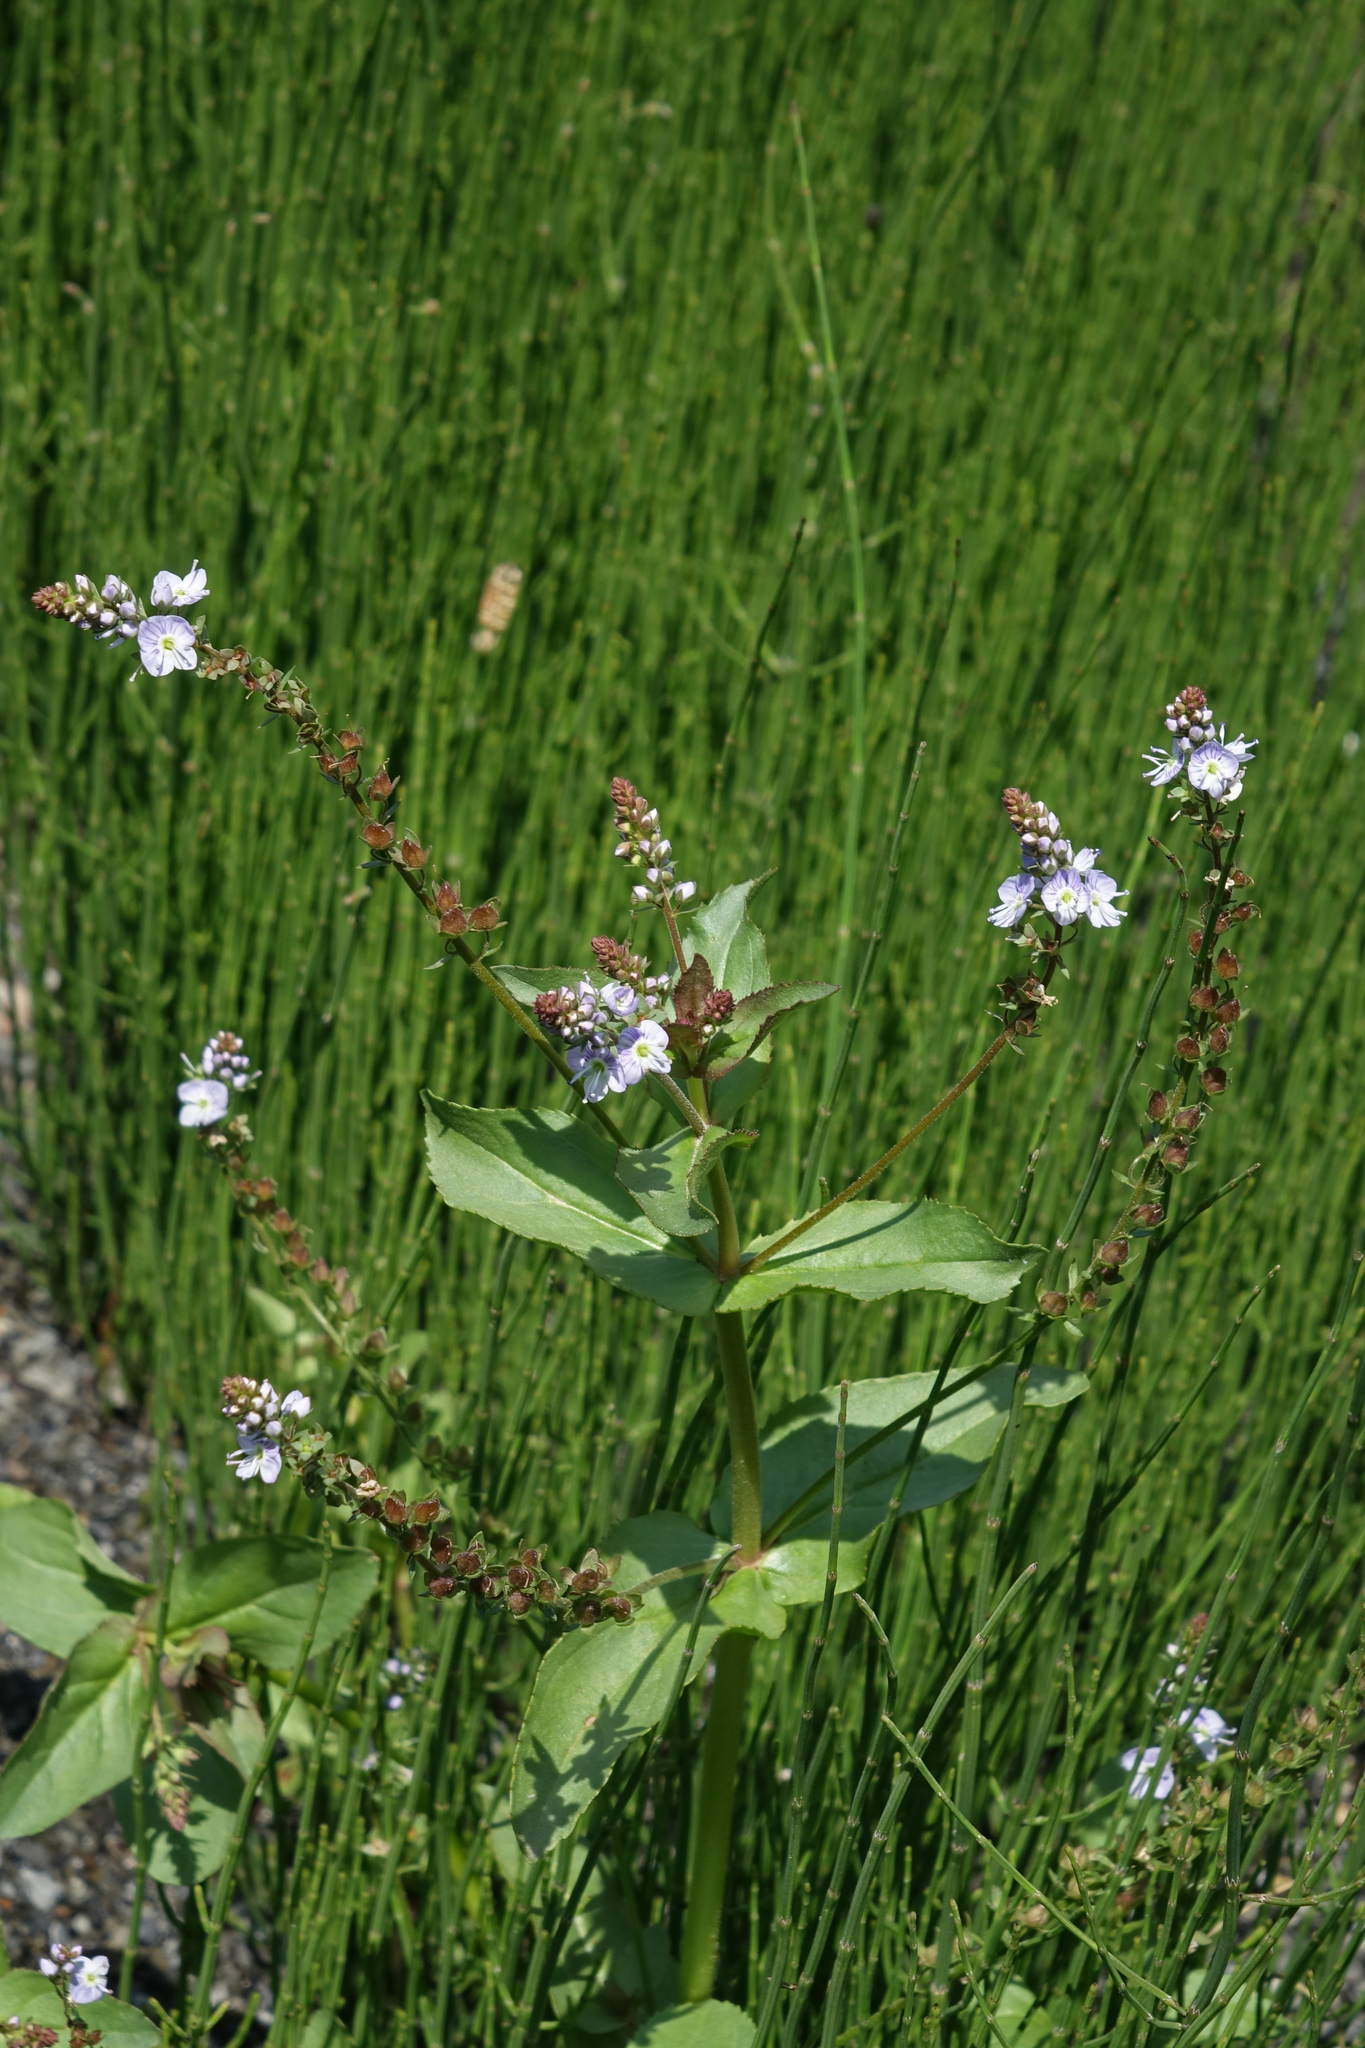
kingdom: Plantae
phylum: Tracheophyta
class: Magnoliopsida
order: Lamiales
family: Plantaginaceae
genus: Veronica
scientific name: Veronica anagallis-aquatica
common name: Water speedwell
